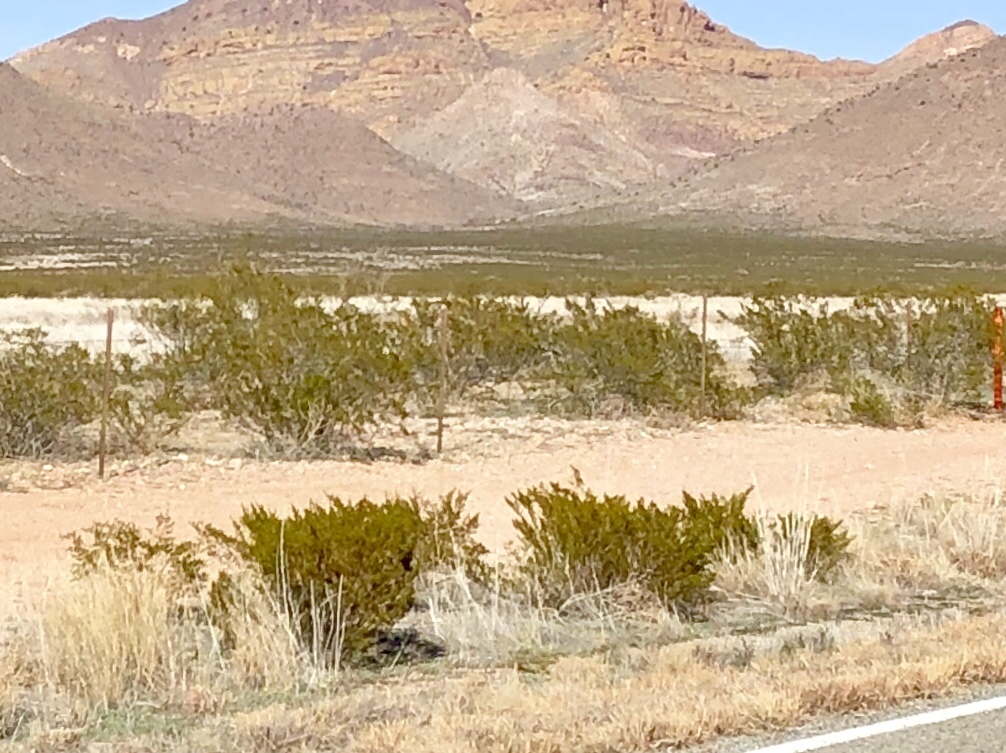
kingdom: Plantae
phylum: Tracheophyta
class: Magnoliopsida
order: Zygophyllales
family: Zygophyllaceae
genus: Larrea
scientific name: Larrea tridentata
